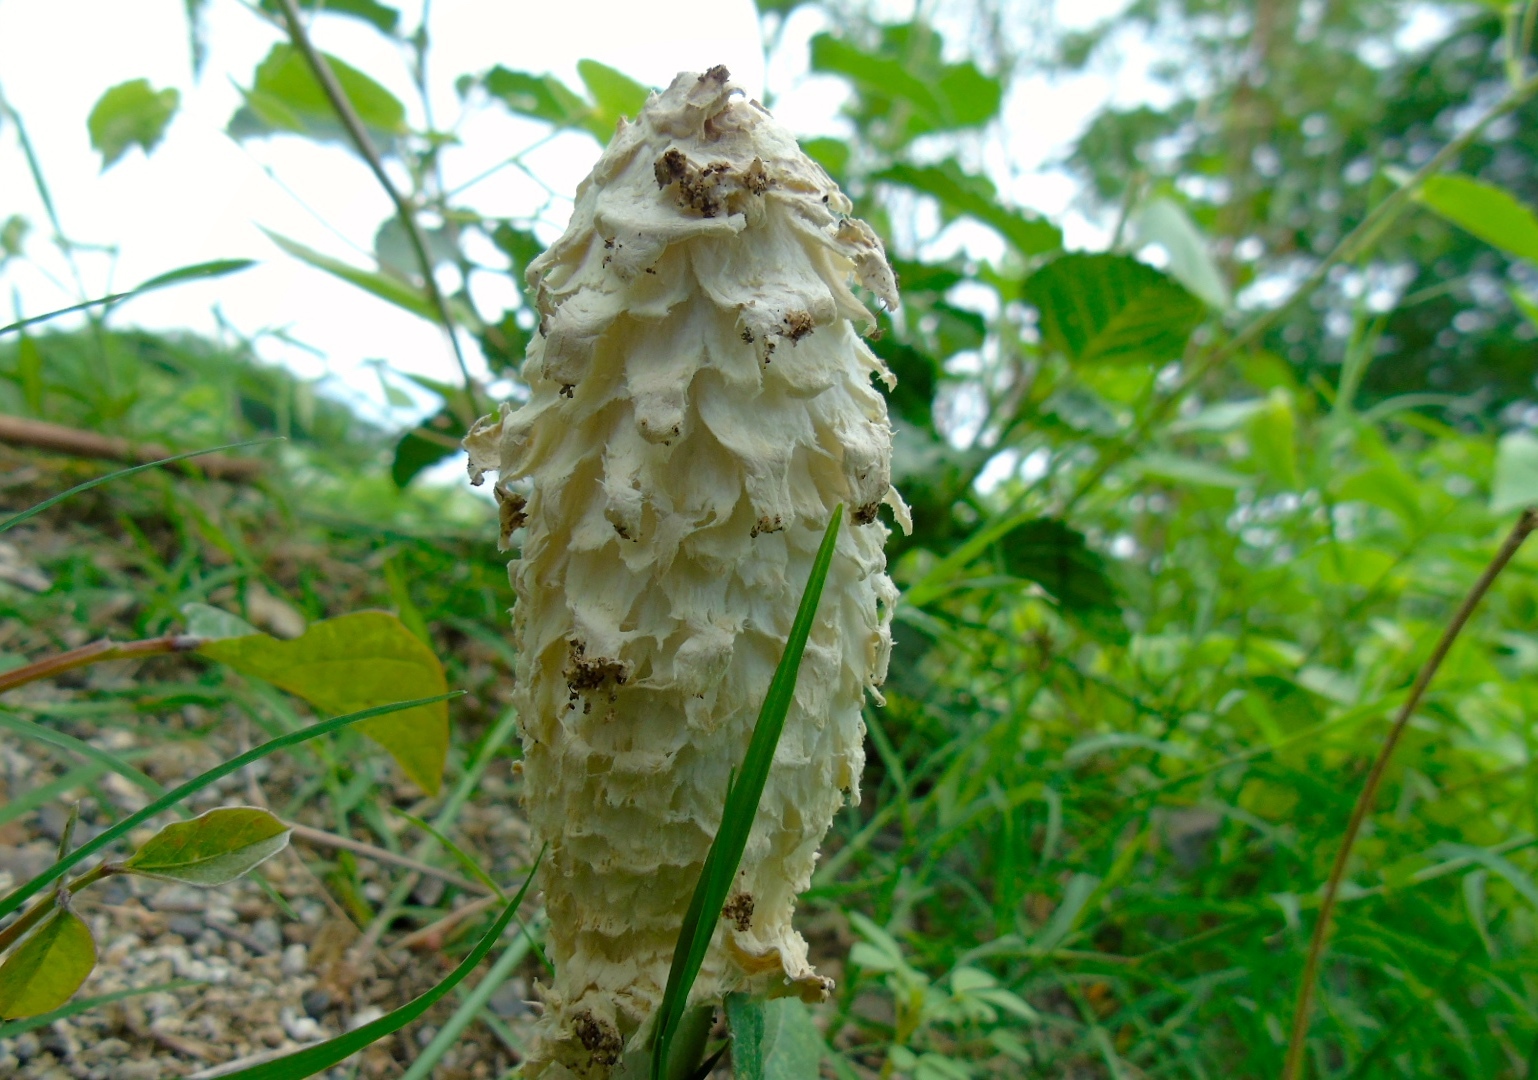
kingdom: Fungi
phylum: Basidiomycota
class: Agaricomycetes
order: Agaricales
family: Agaricaceae
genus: Podaxis
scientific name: Podaxis
